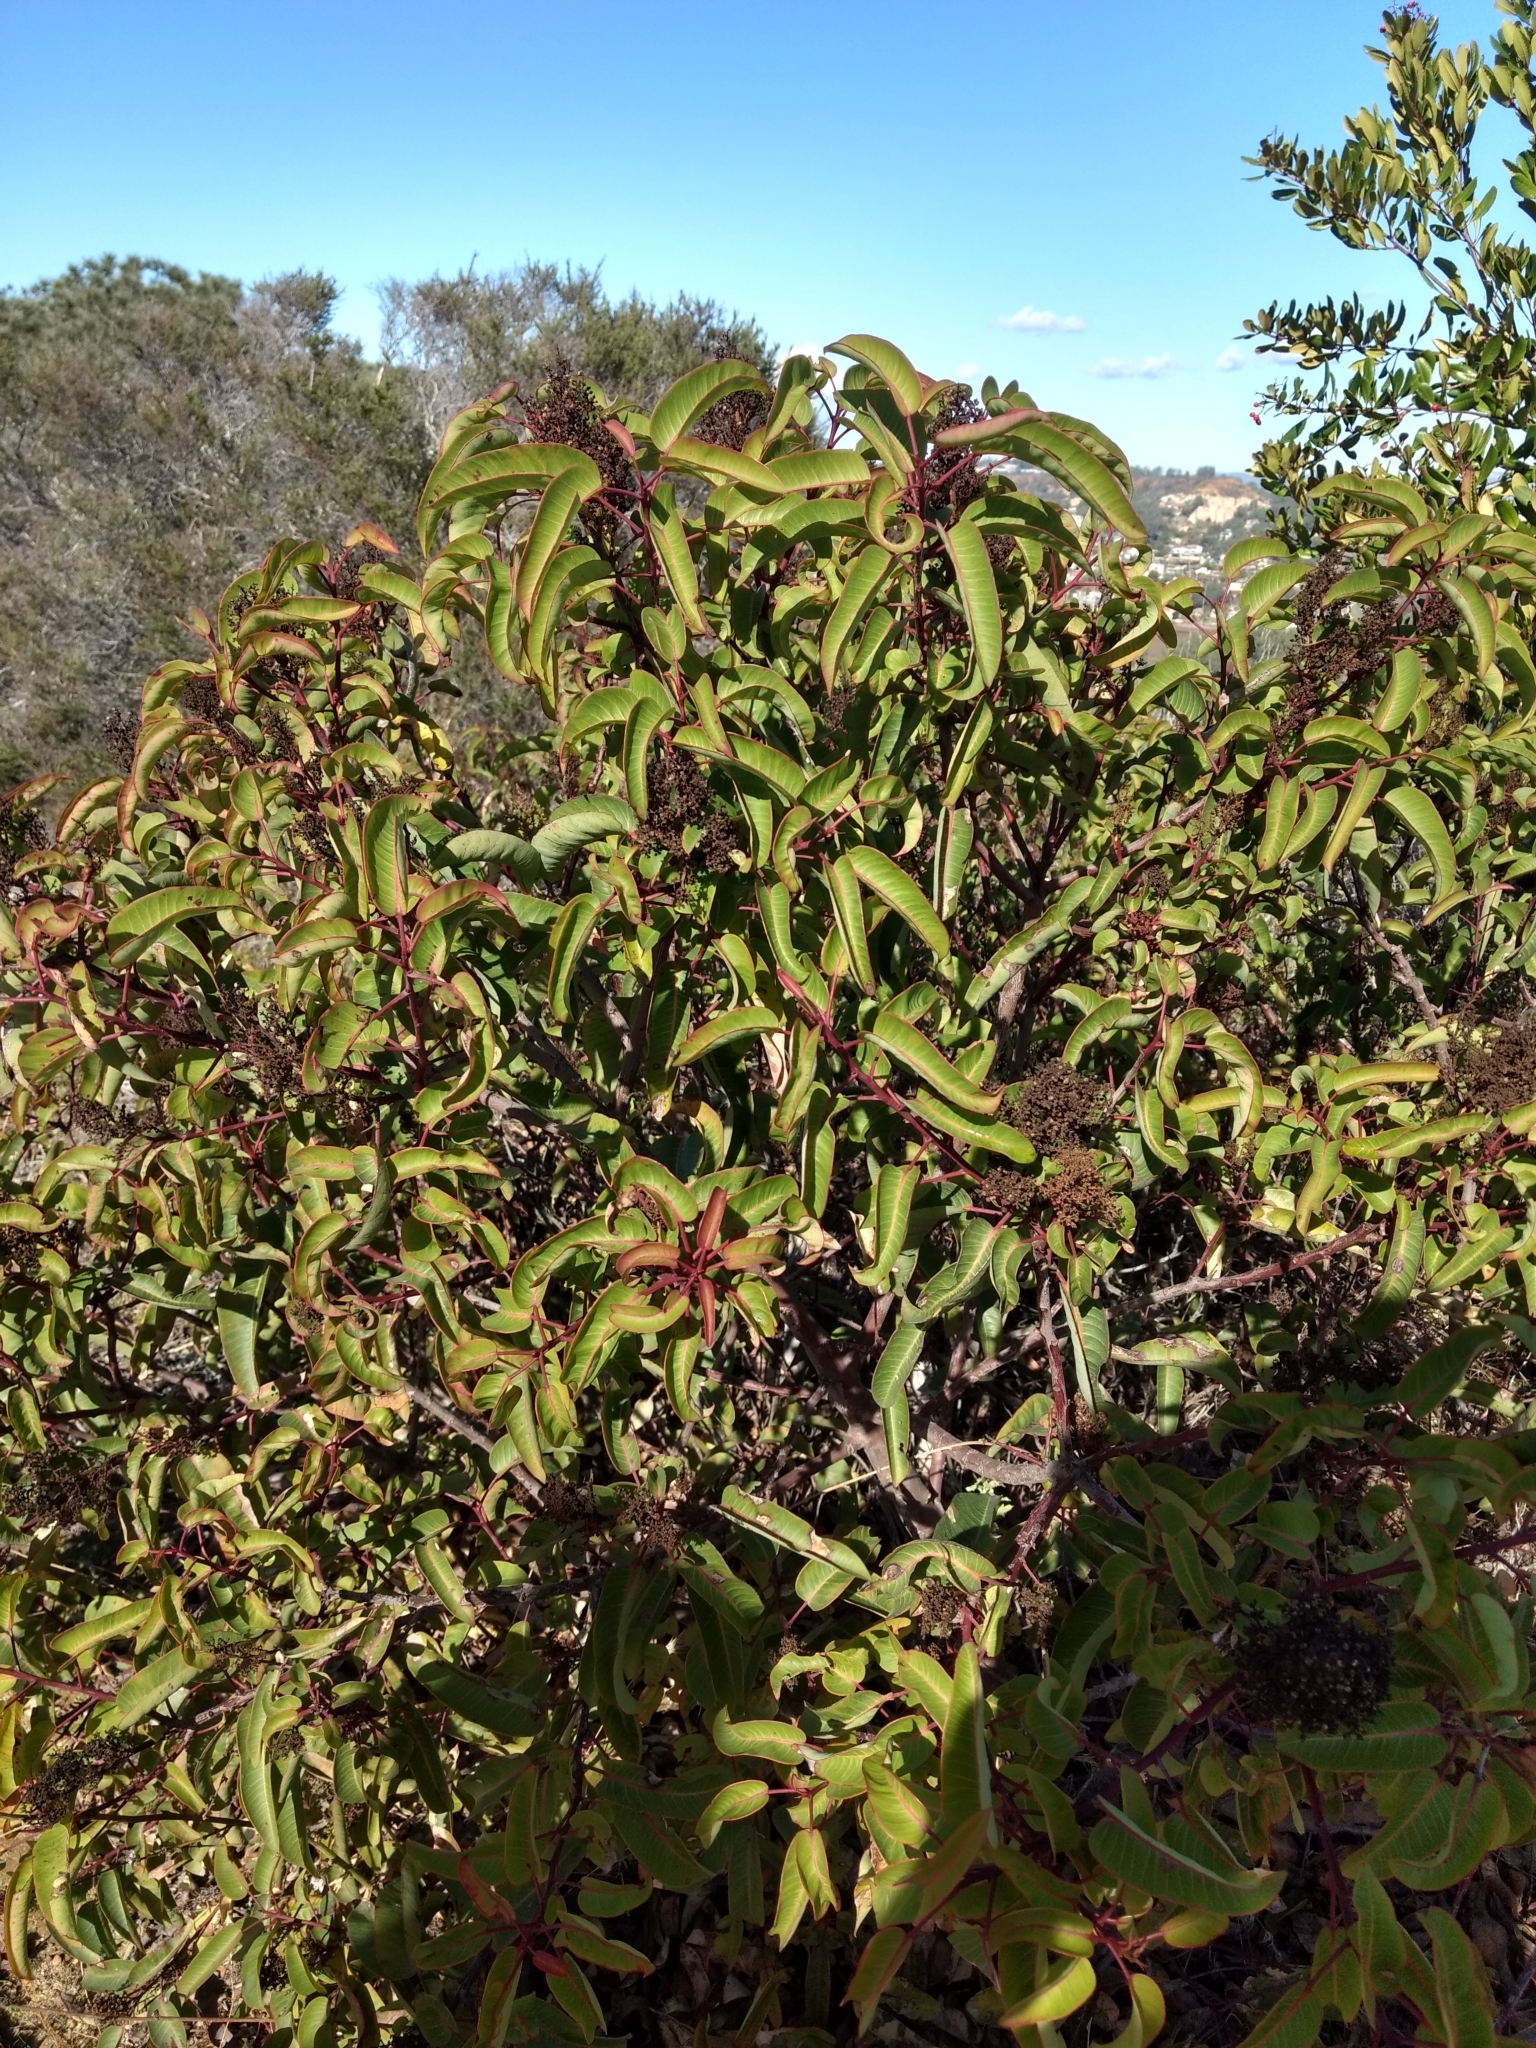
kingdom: Plantae
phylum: Tracheophyta
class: Magnoliopsida
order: Sapindales
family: Anacardiaceae
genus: Malosma
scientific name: Malosma laurina
